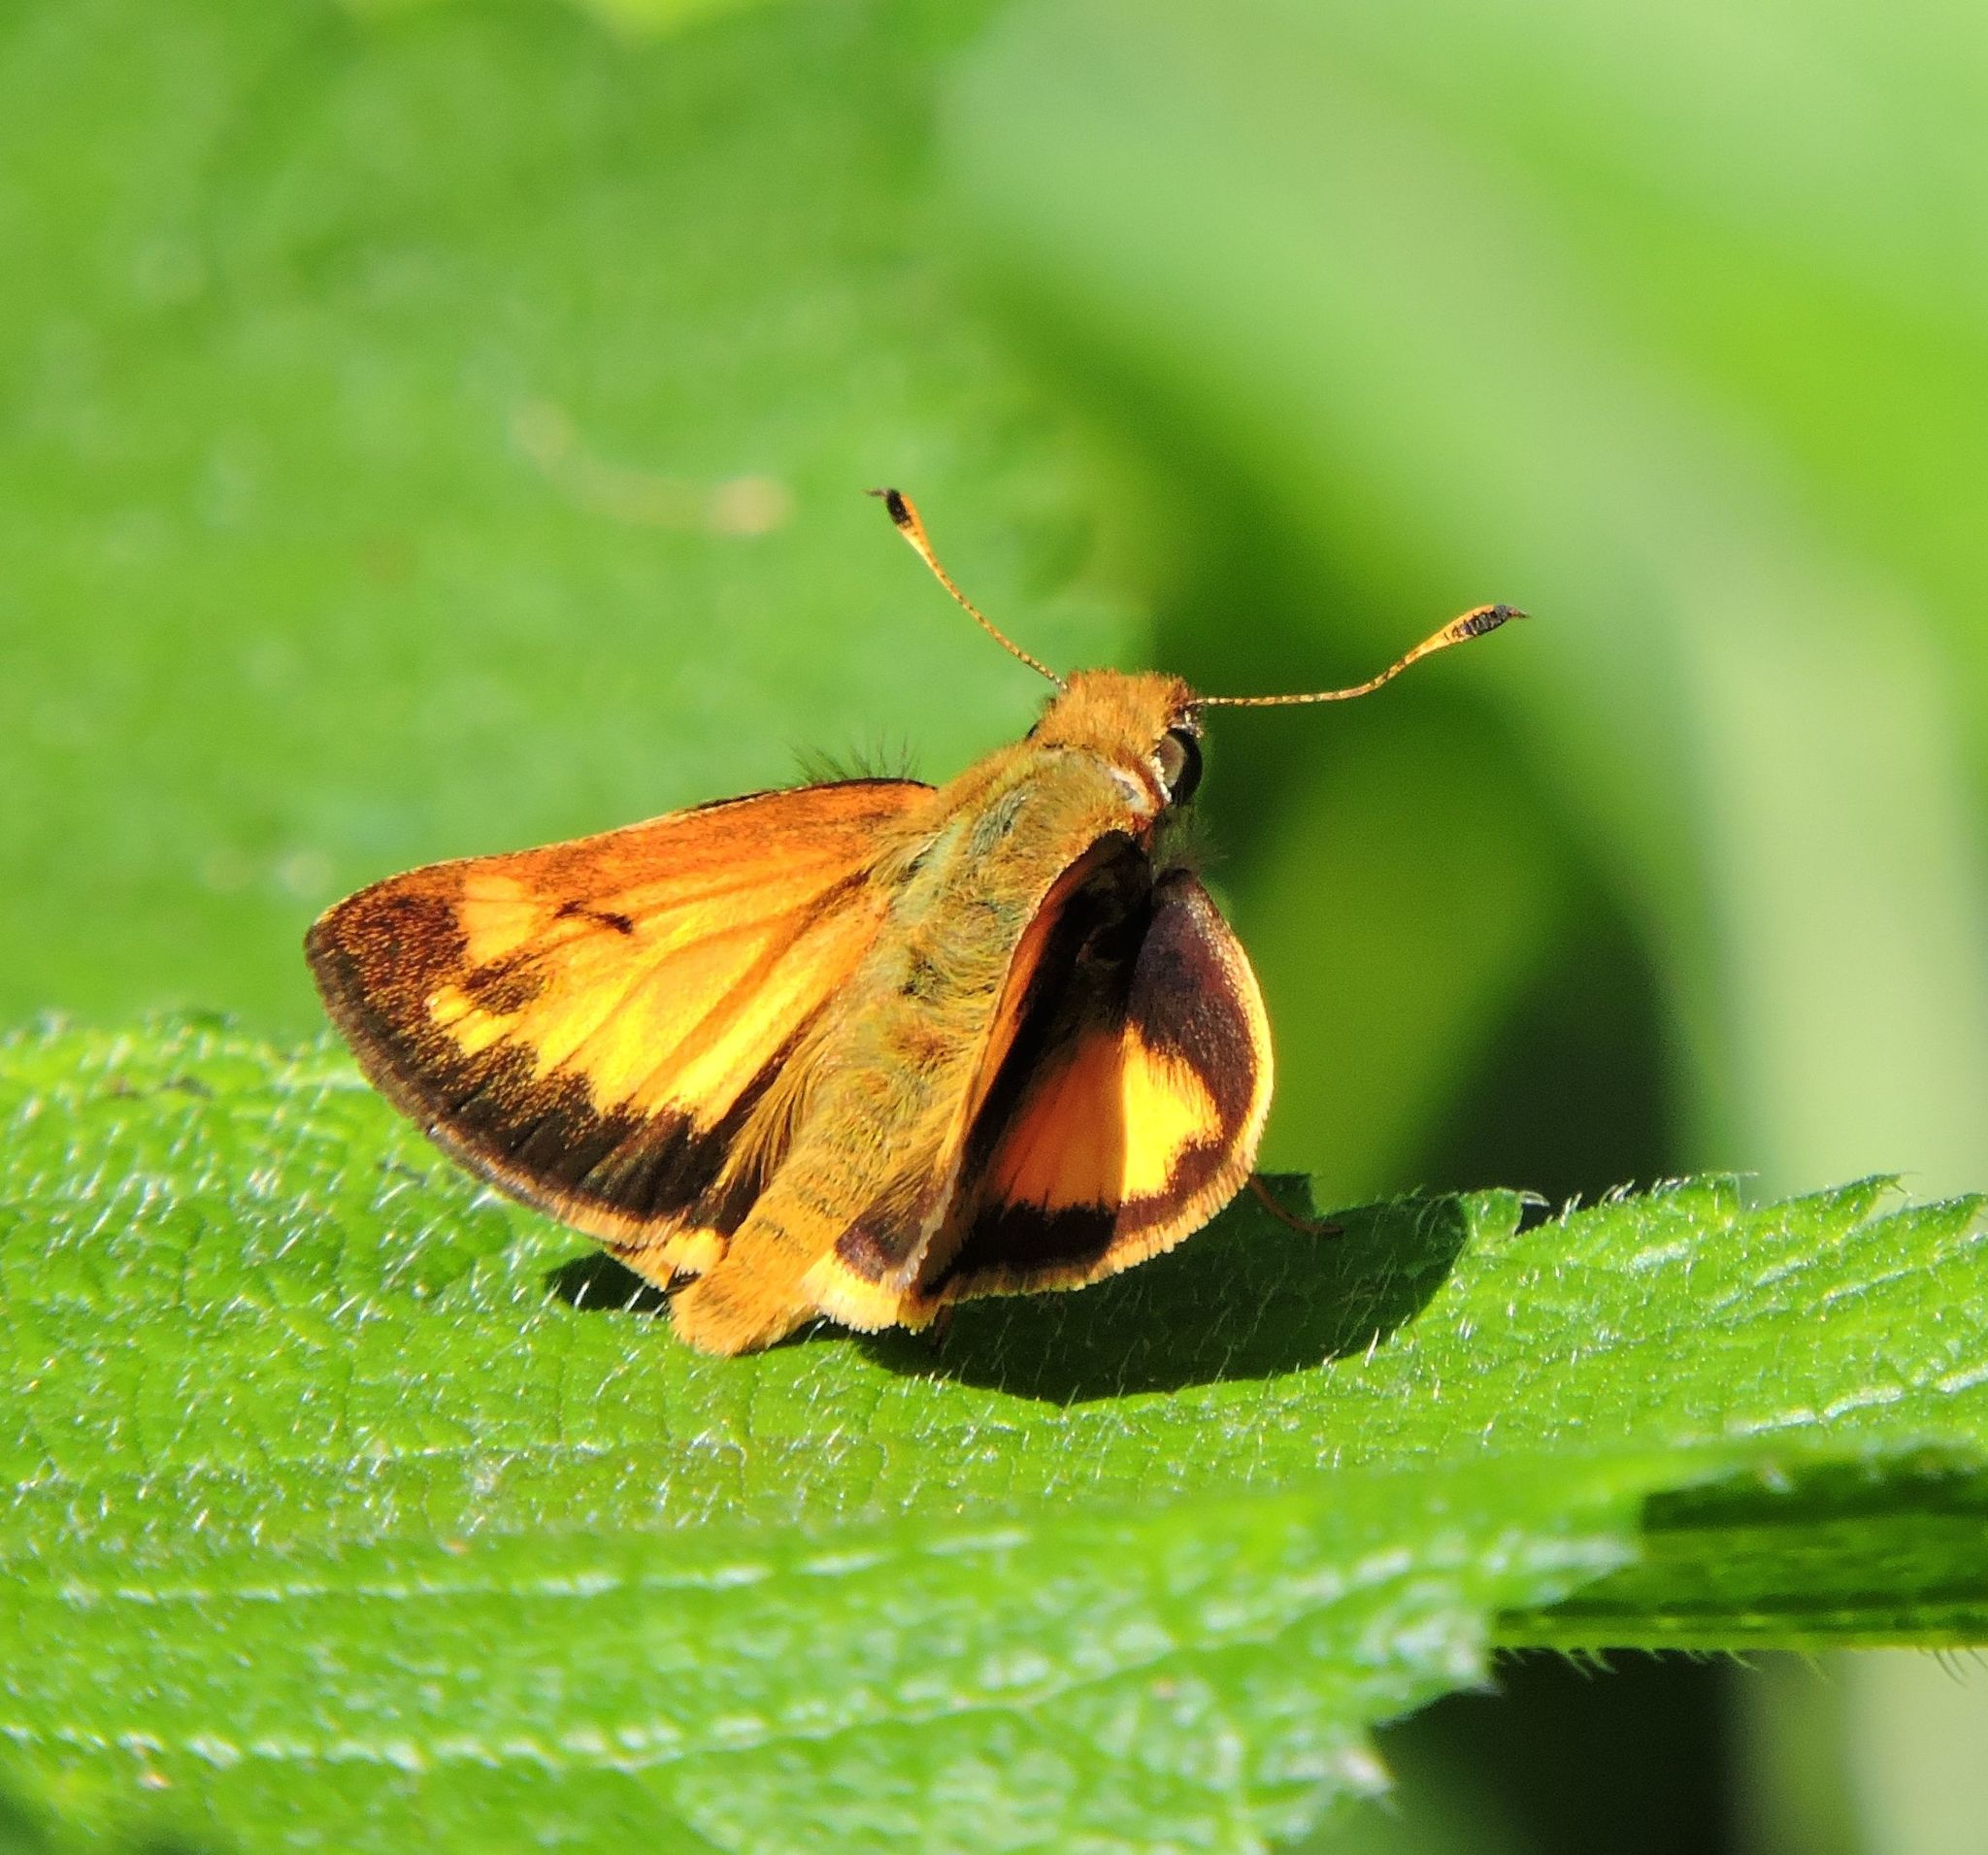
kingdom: Animalia
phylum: Arthropoda
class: Insecta
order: Lepidoptera
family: Hesperiidae
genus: Lon
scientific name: Lon zabulon
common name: Zabulon skipper
